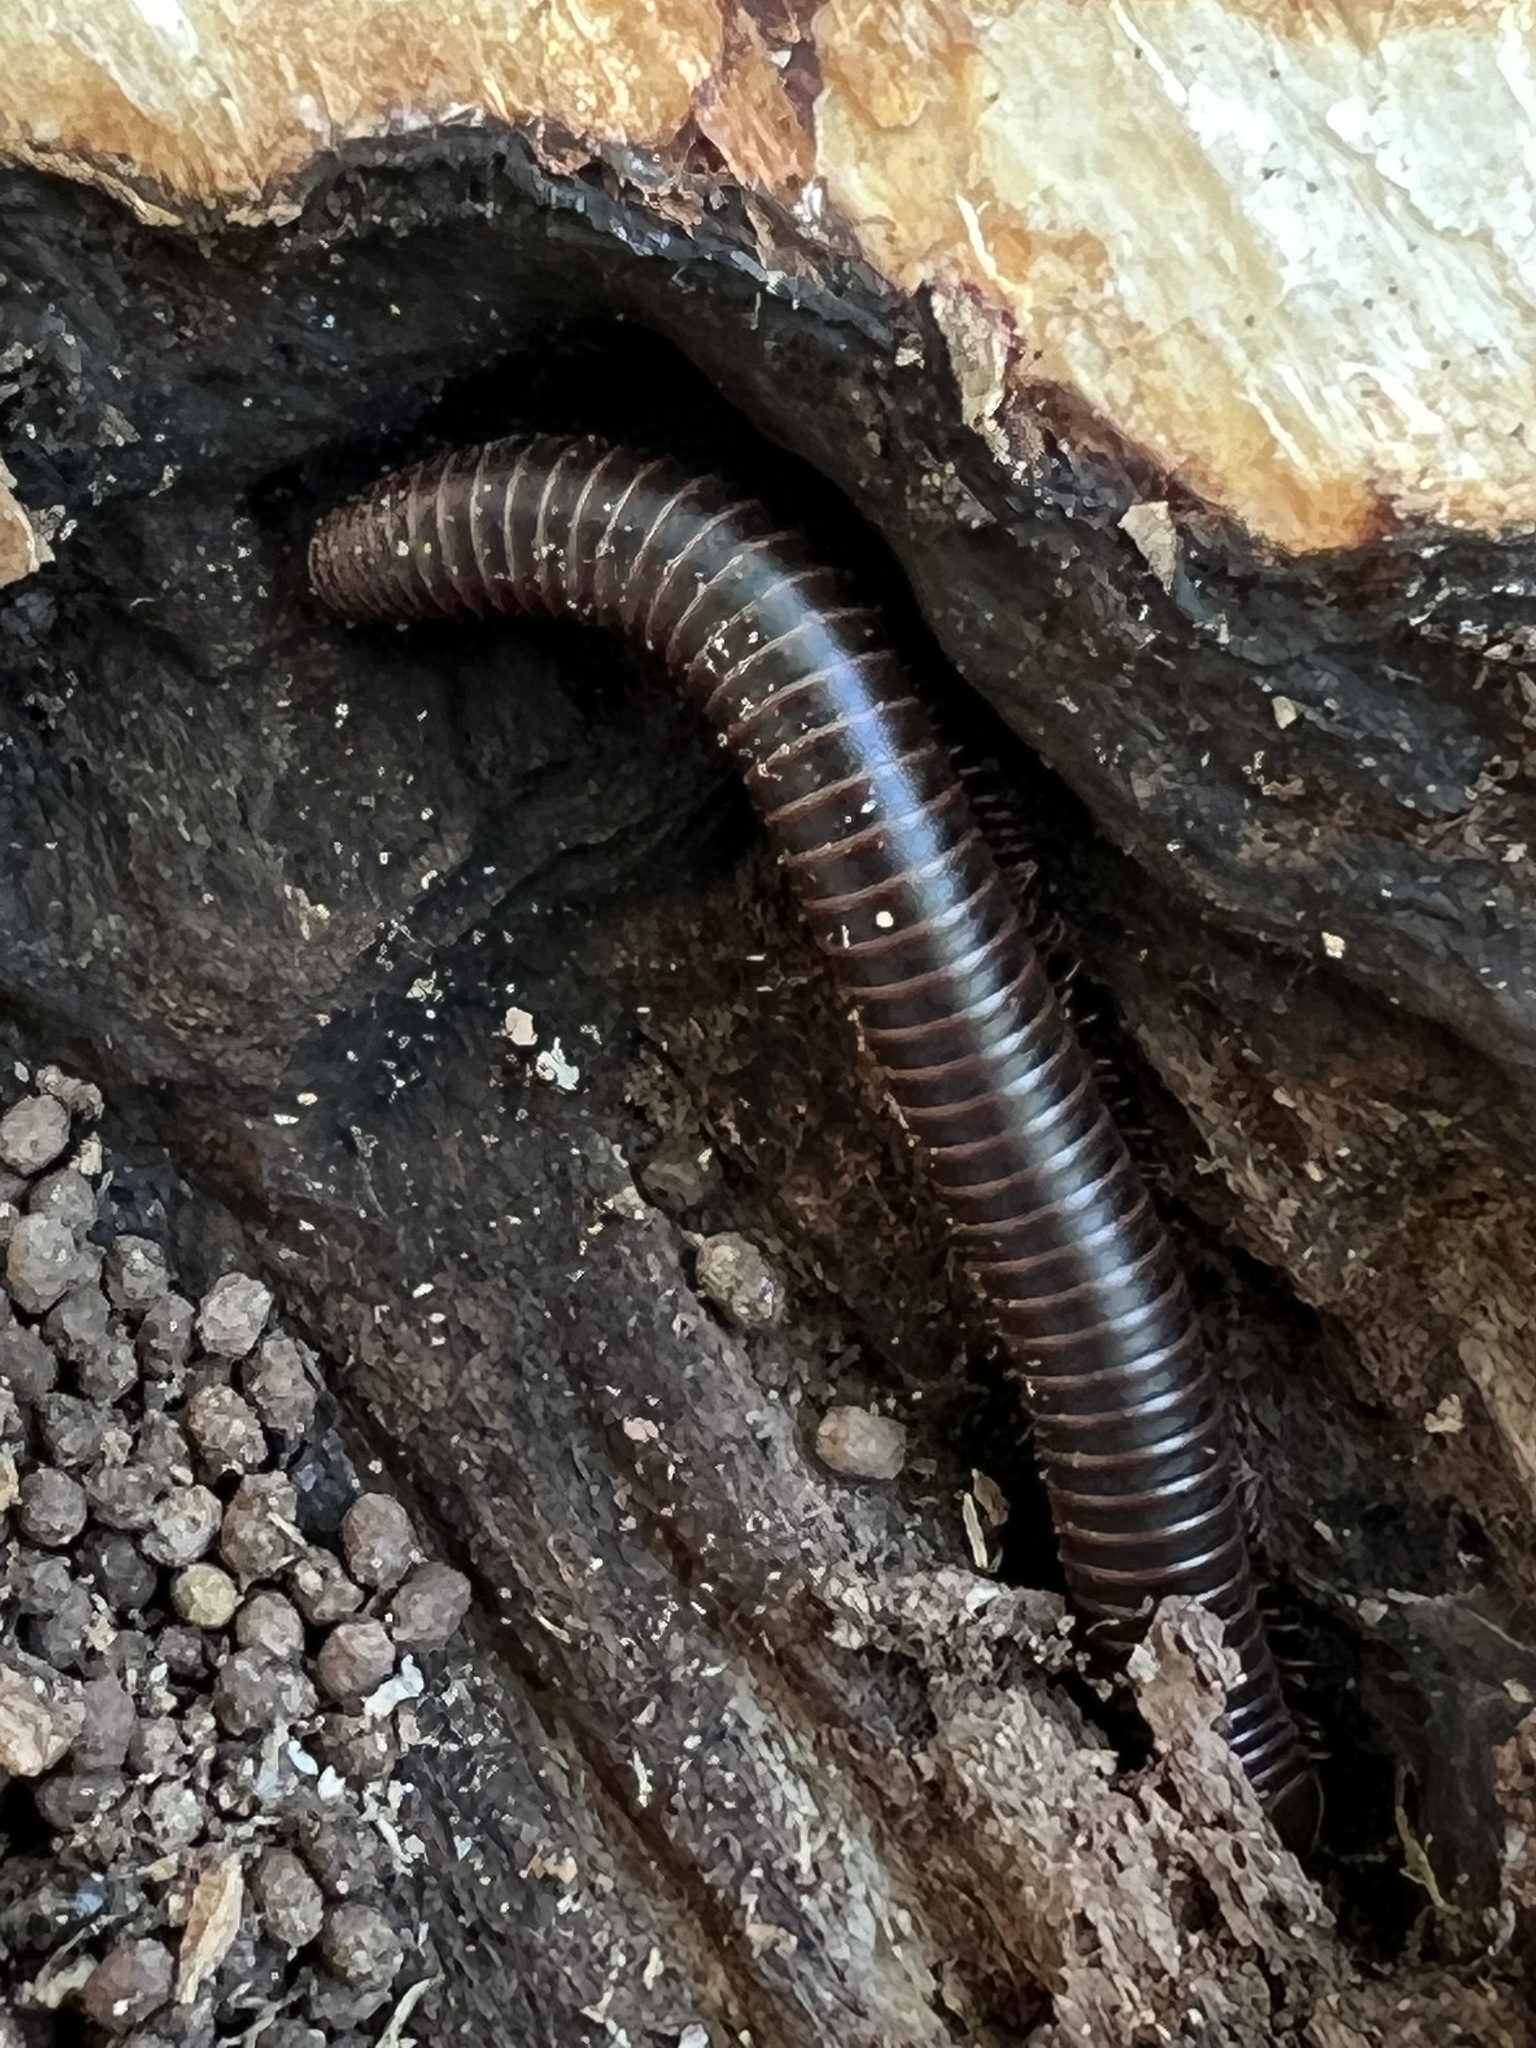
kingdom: Animalia
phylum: Arthropoda
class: Diplopoda
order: Spirobolida
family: Spirobolidae
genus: Narceus
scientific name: Narceus
